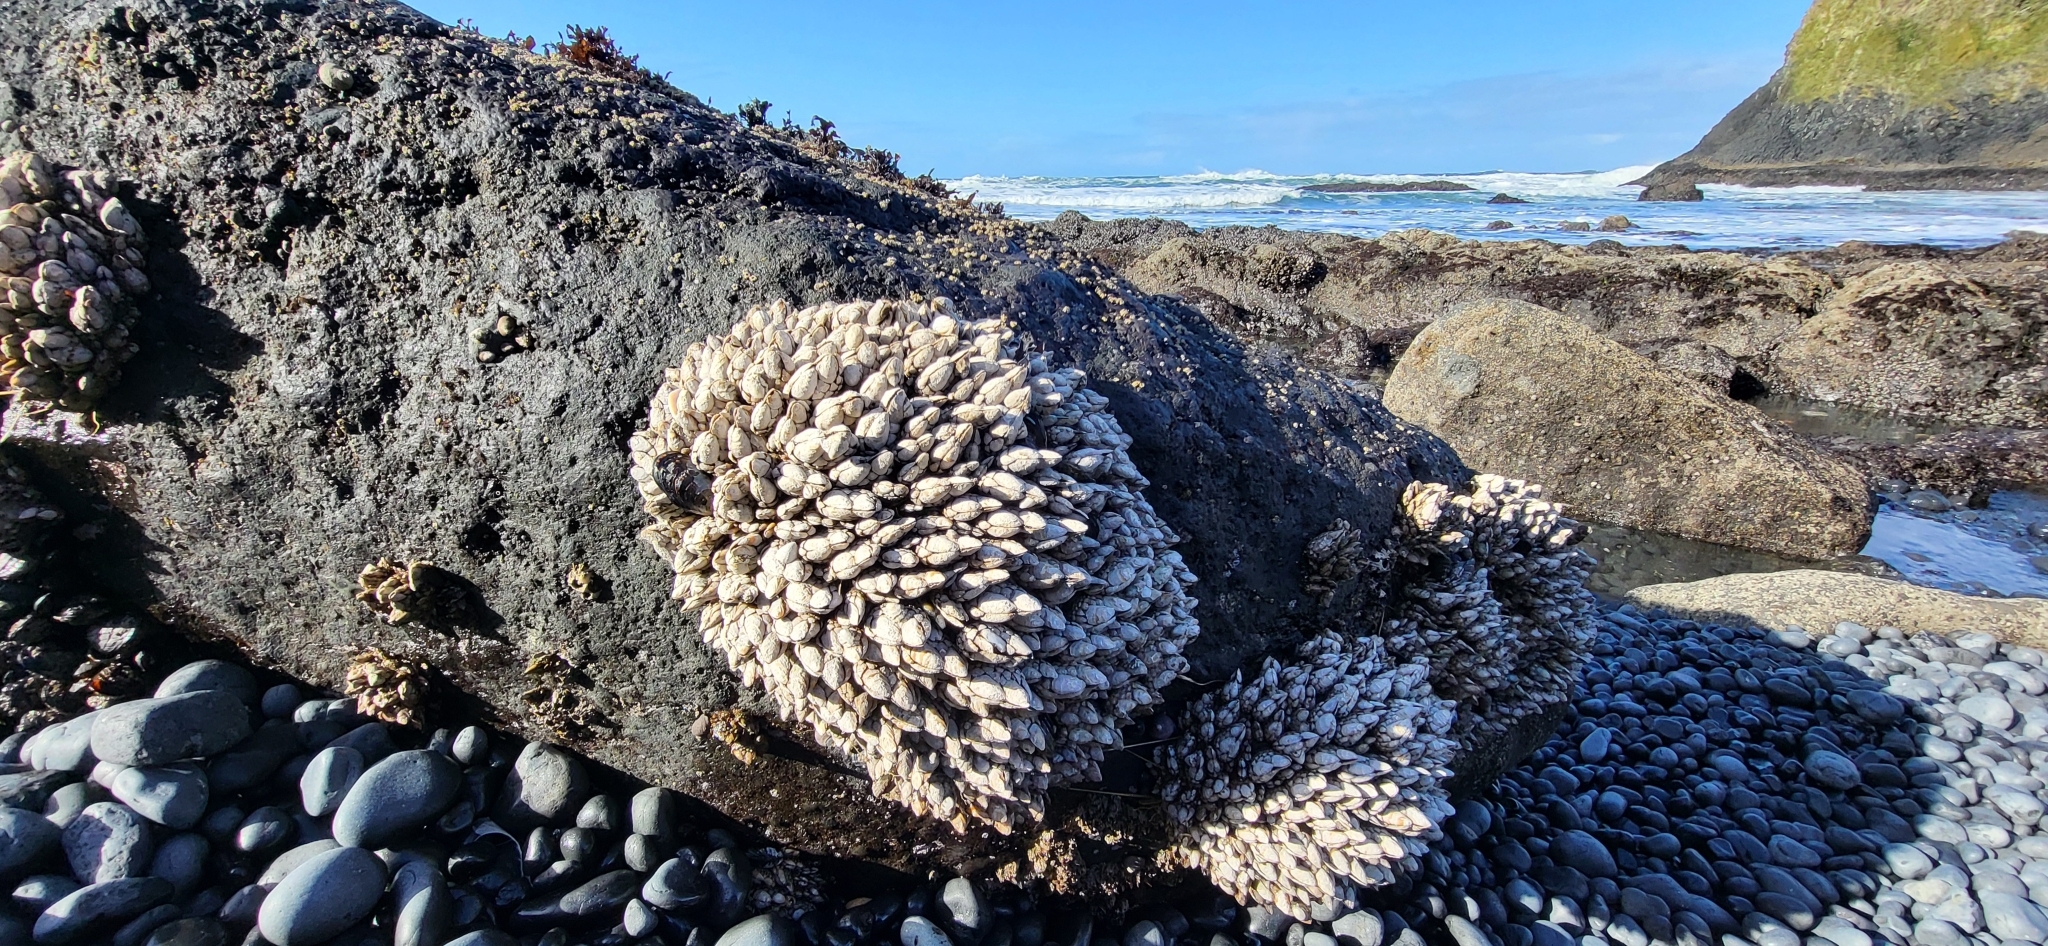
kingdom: Animalia
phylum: Arthropoda
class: Maxillopoda
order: Pedunculata
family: Pollicipedidae
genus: Pollicipes
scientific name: Pollicipes polymerus
